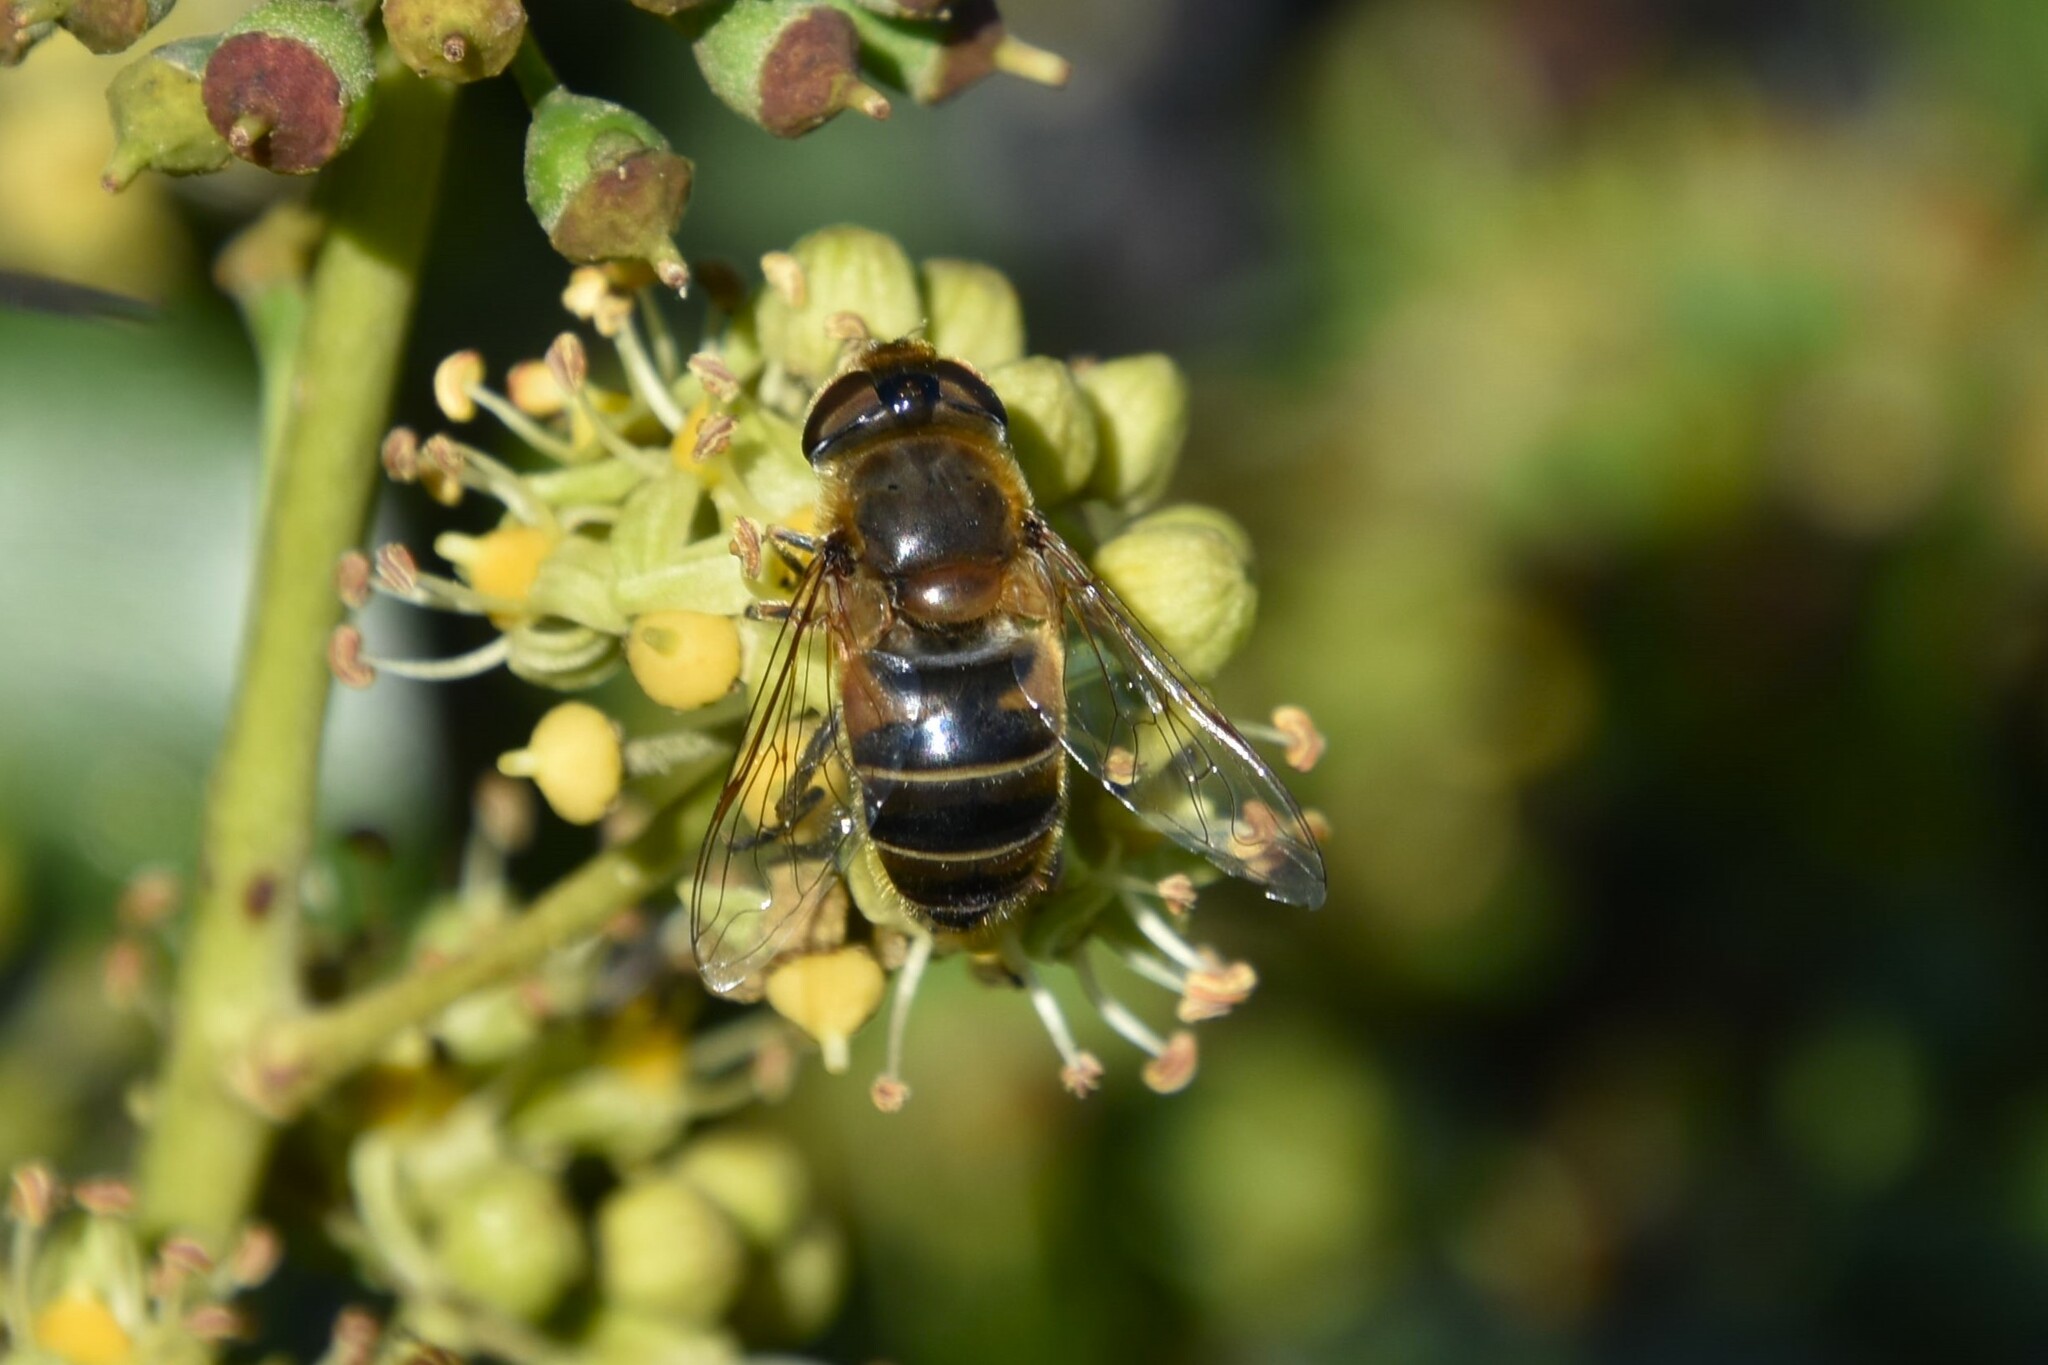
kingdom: Animalia
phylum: Arthropoda
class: Insecta
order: Diptera
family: Syrphidae
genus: Eristalis
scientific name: Eristalis pertinax
